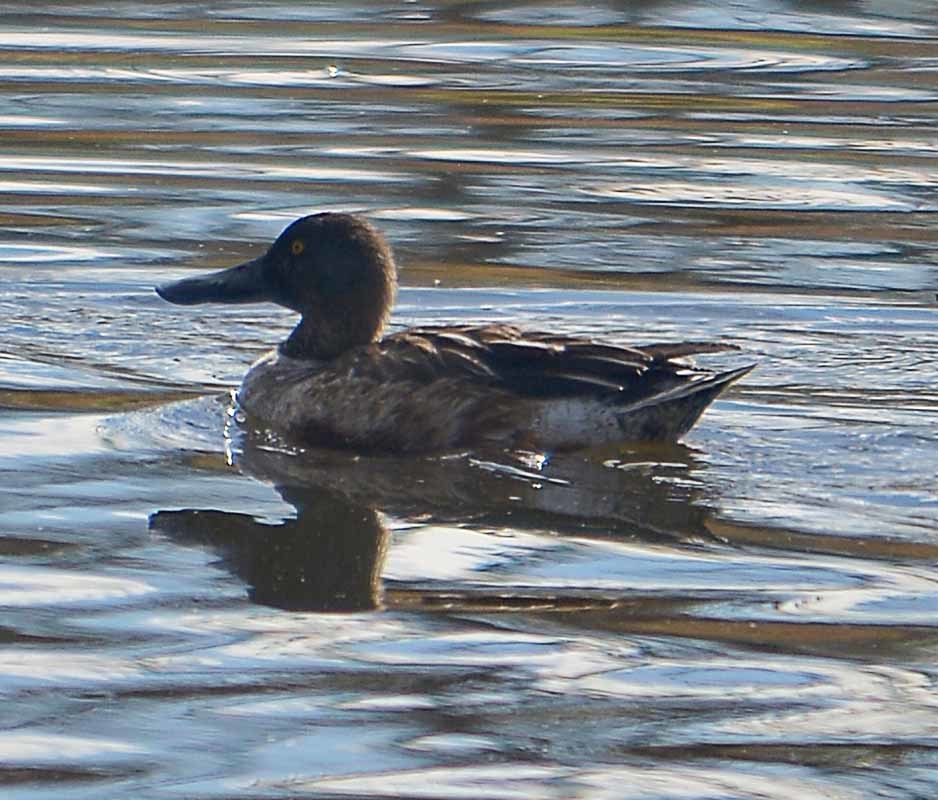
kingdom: Animalia
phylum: Chordata
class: Aves
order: Anseriformes
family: Anatidae
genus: Spatula
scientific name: Spatula clypeata
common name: Northern shoveler
